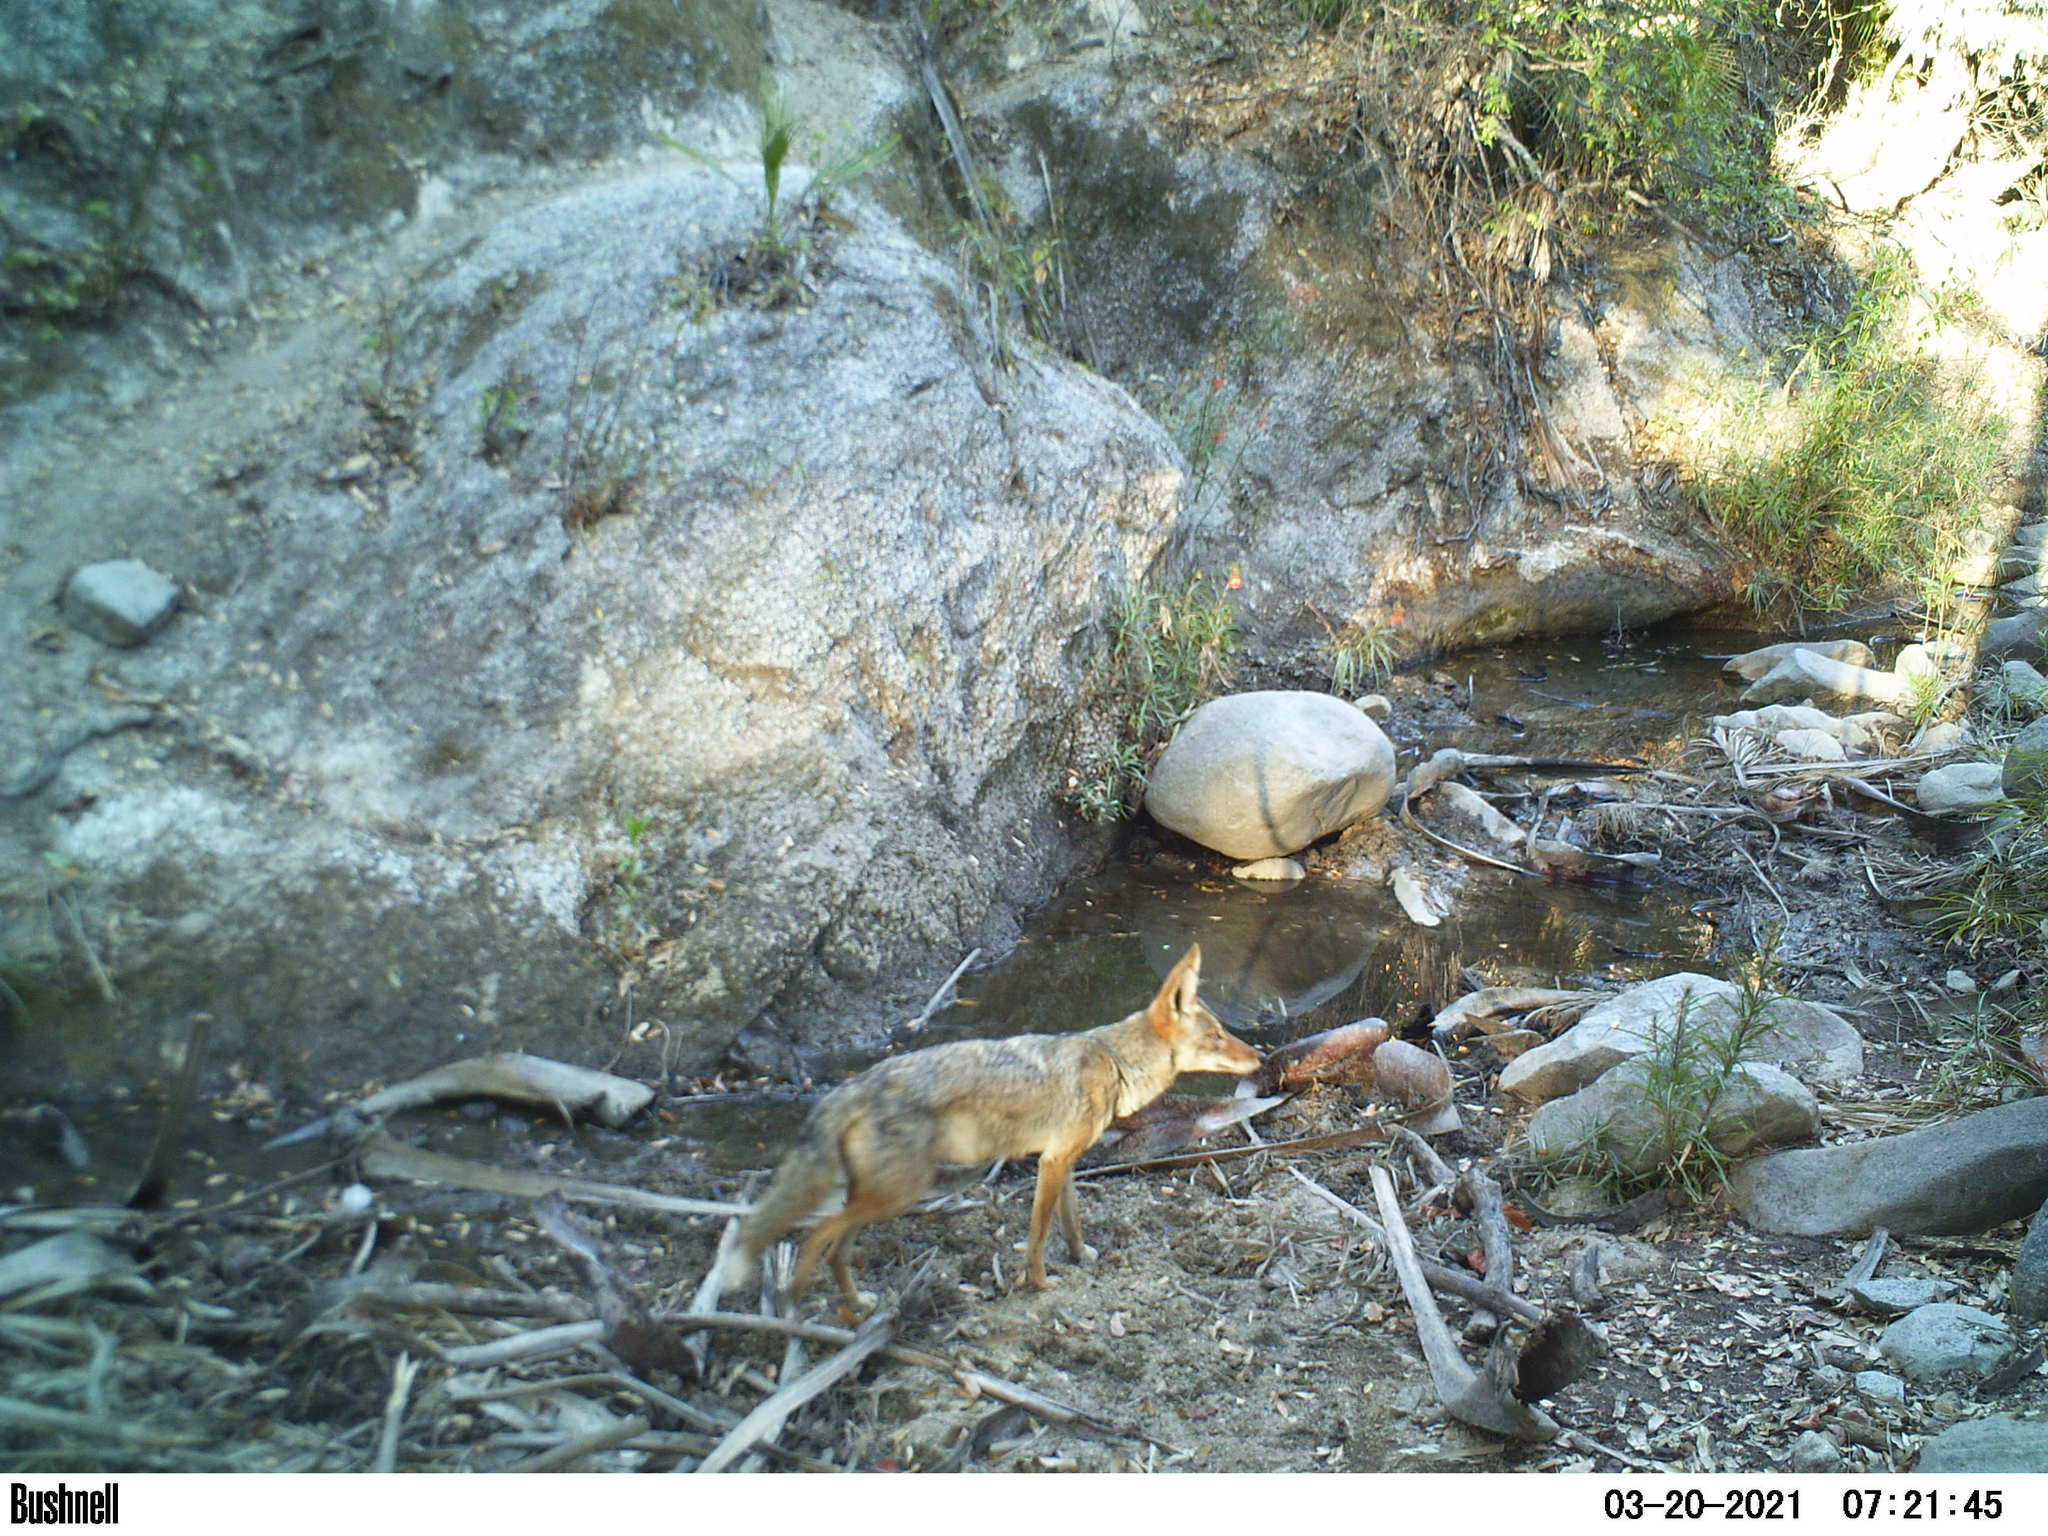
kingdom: Animalia
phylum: Chordata
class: Mammalia
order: Carnivora
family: Canidae
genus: Canis
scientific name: Canis latrans
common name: Coyote
